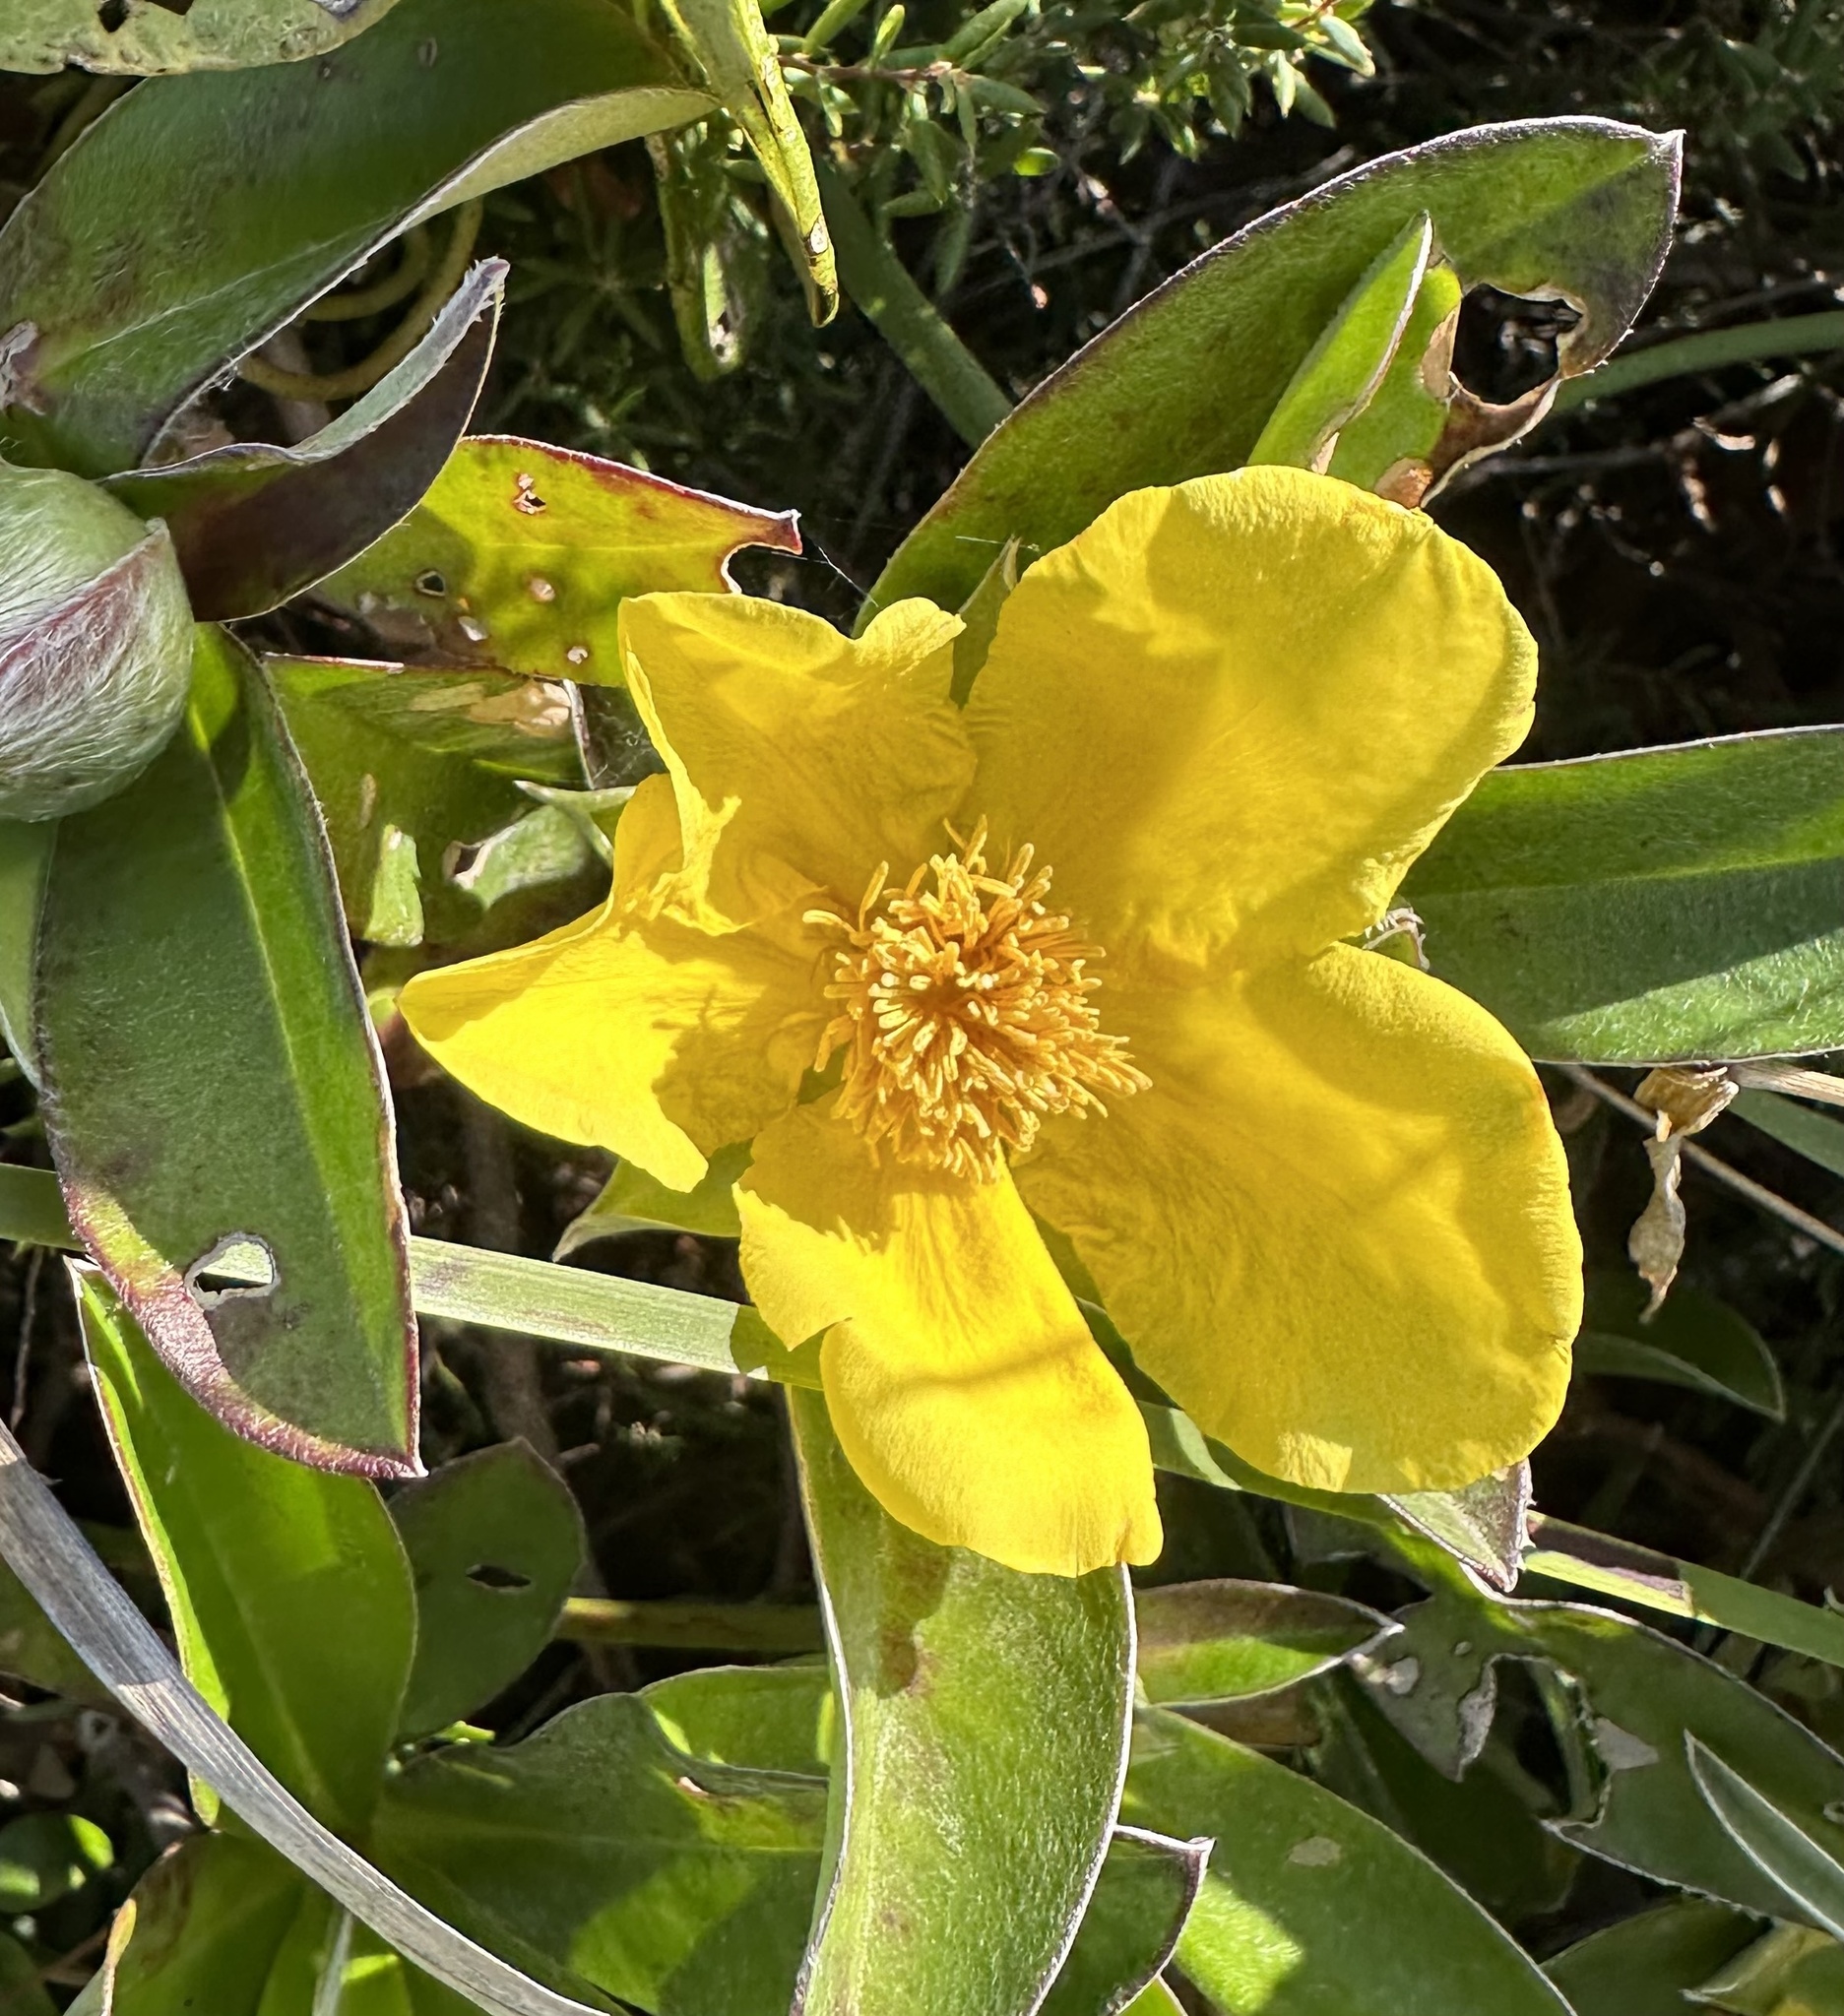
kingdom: Plantae
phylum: Tracheophyta
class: Magnoliopsida
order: Dilleniales
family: Dilleniaceae
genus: Hibbertia
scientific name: Hibbertia scandens
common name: Climbing guinea-flower
